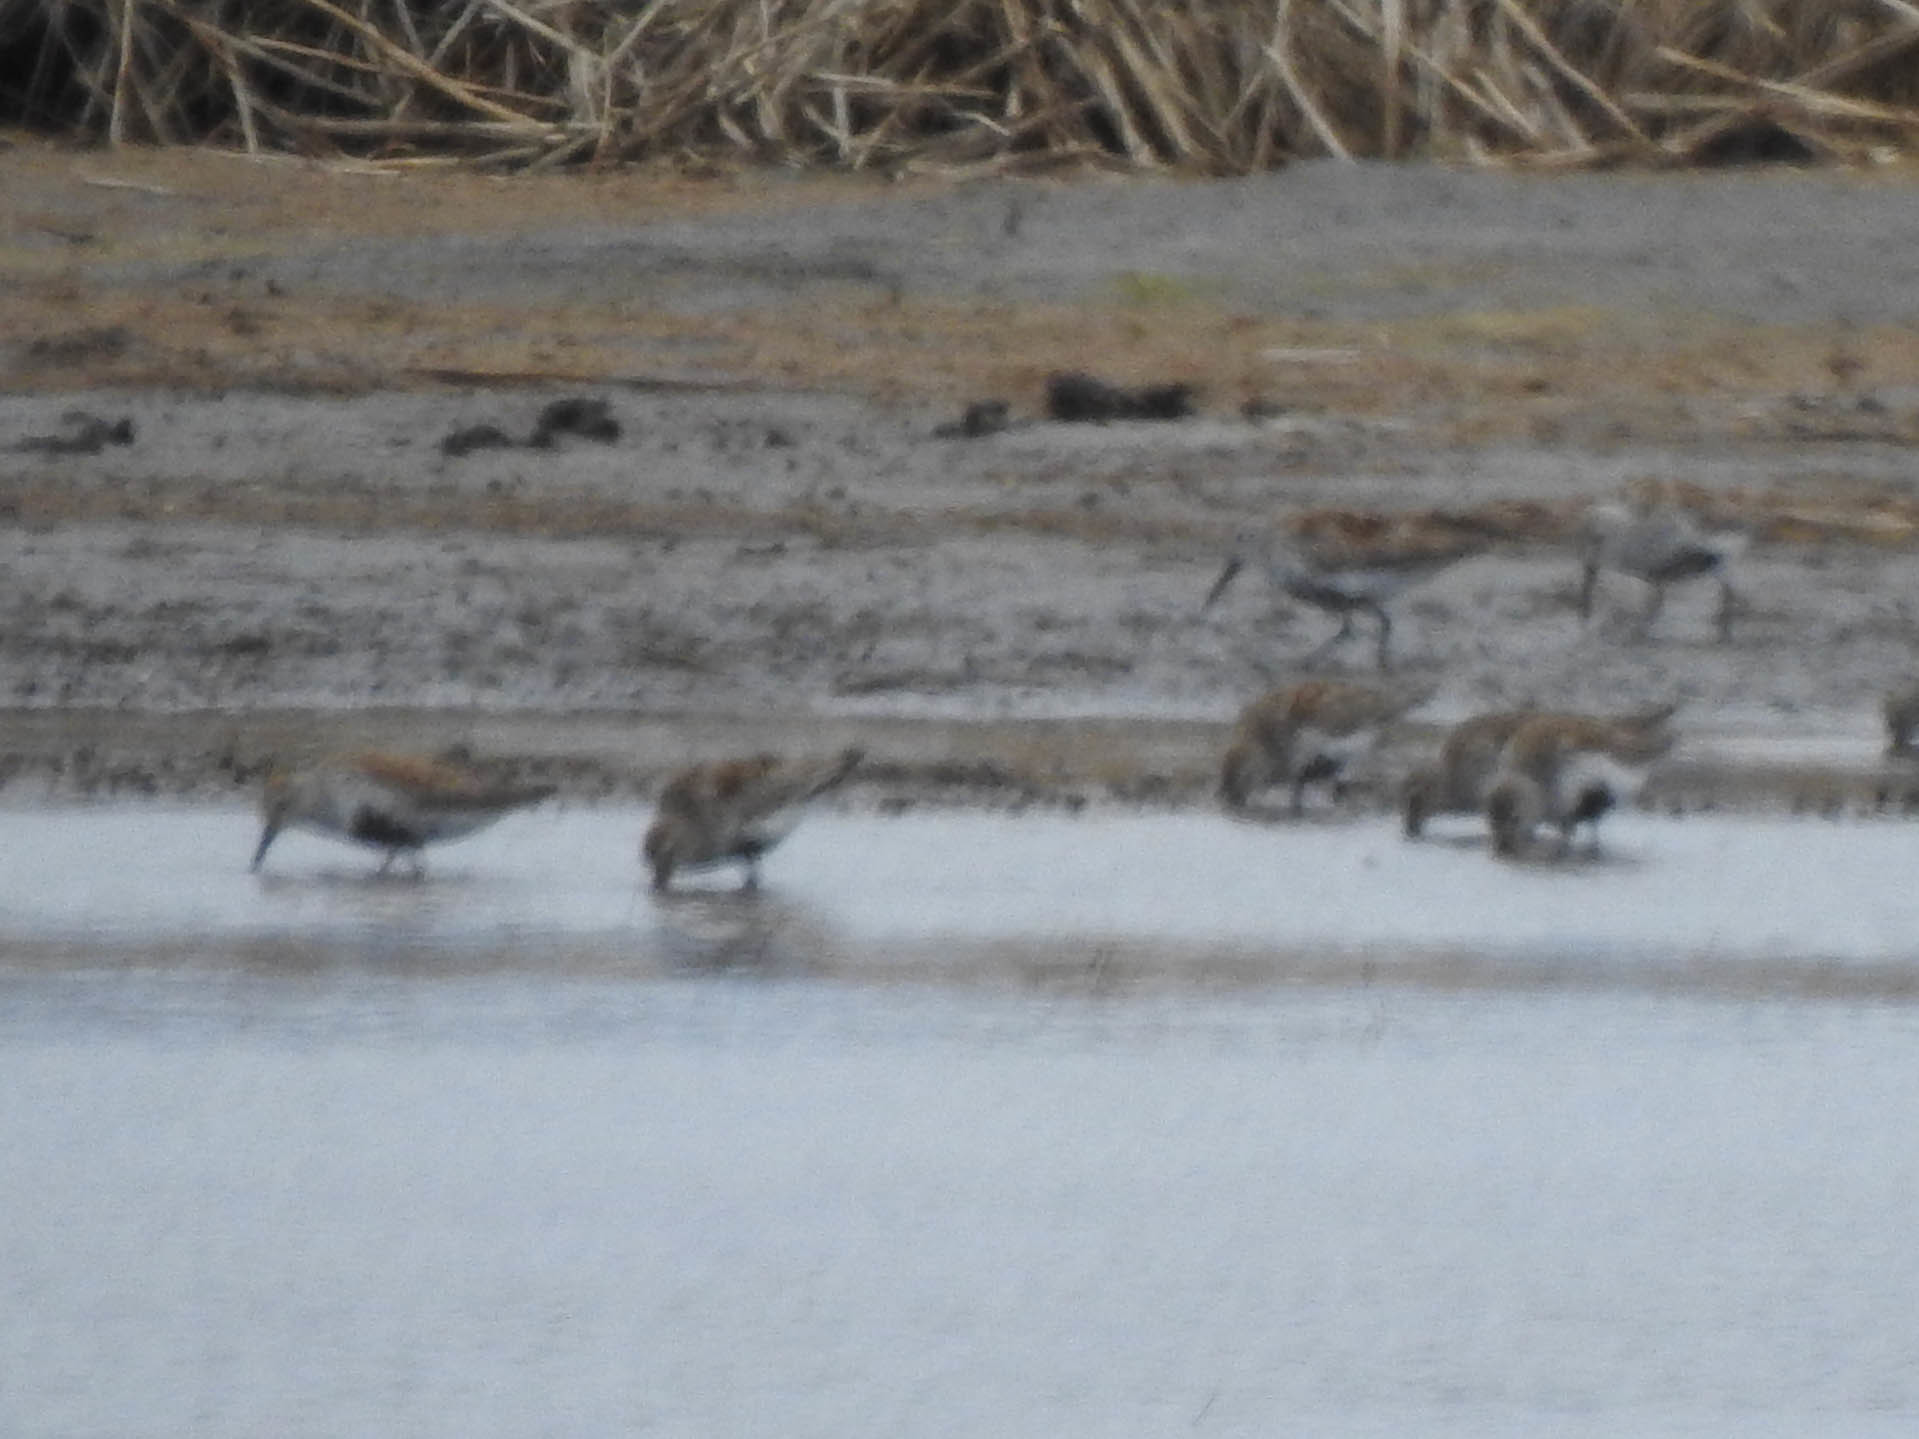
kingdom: Animalia
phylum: Chordata
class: Aves
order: Charadriiformes
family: Scolopacidae
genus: Calidris
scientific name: Calidris alpina
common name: Dunlin
